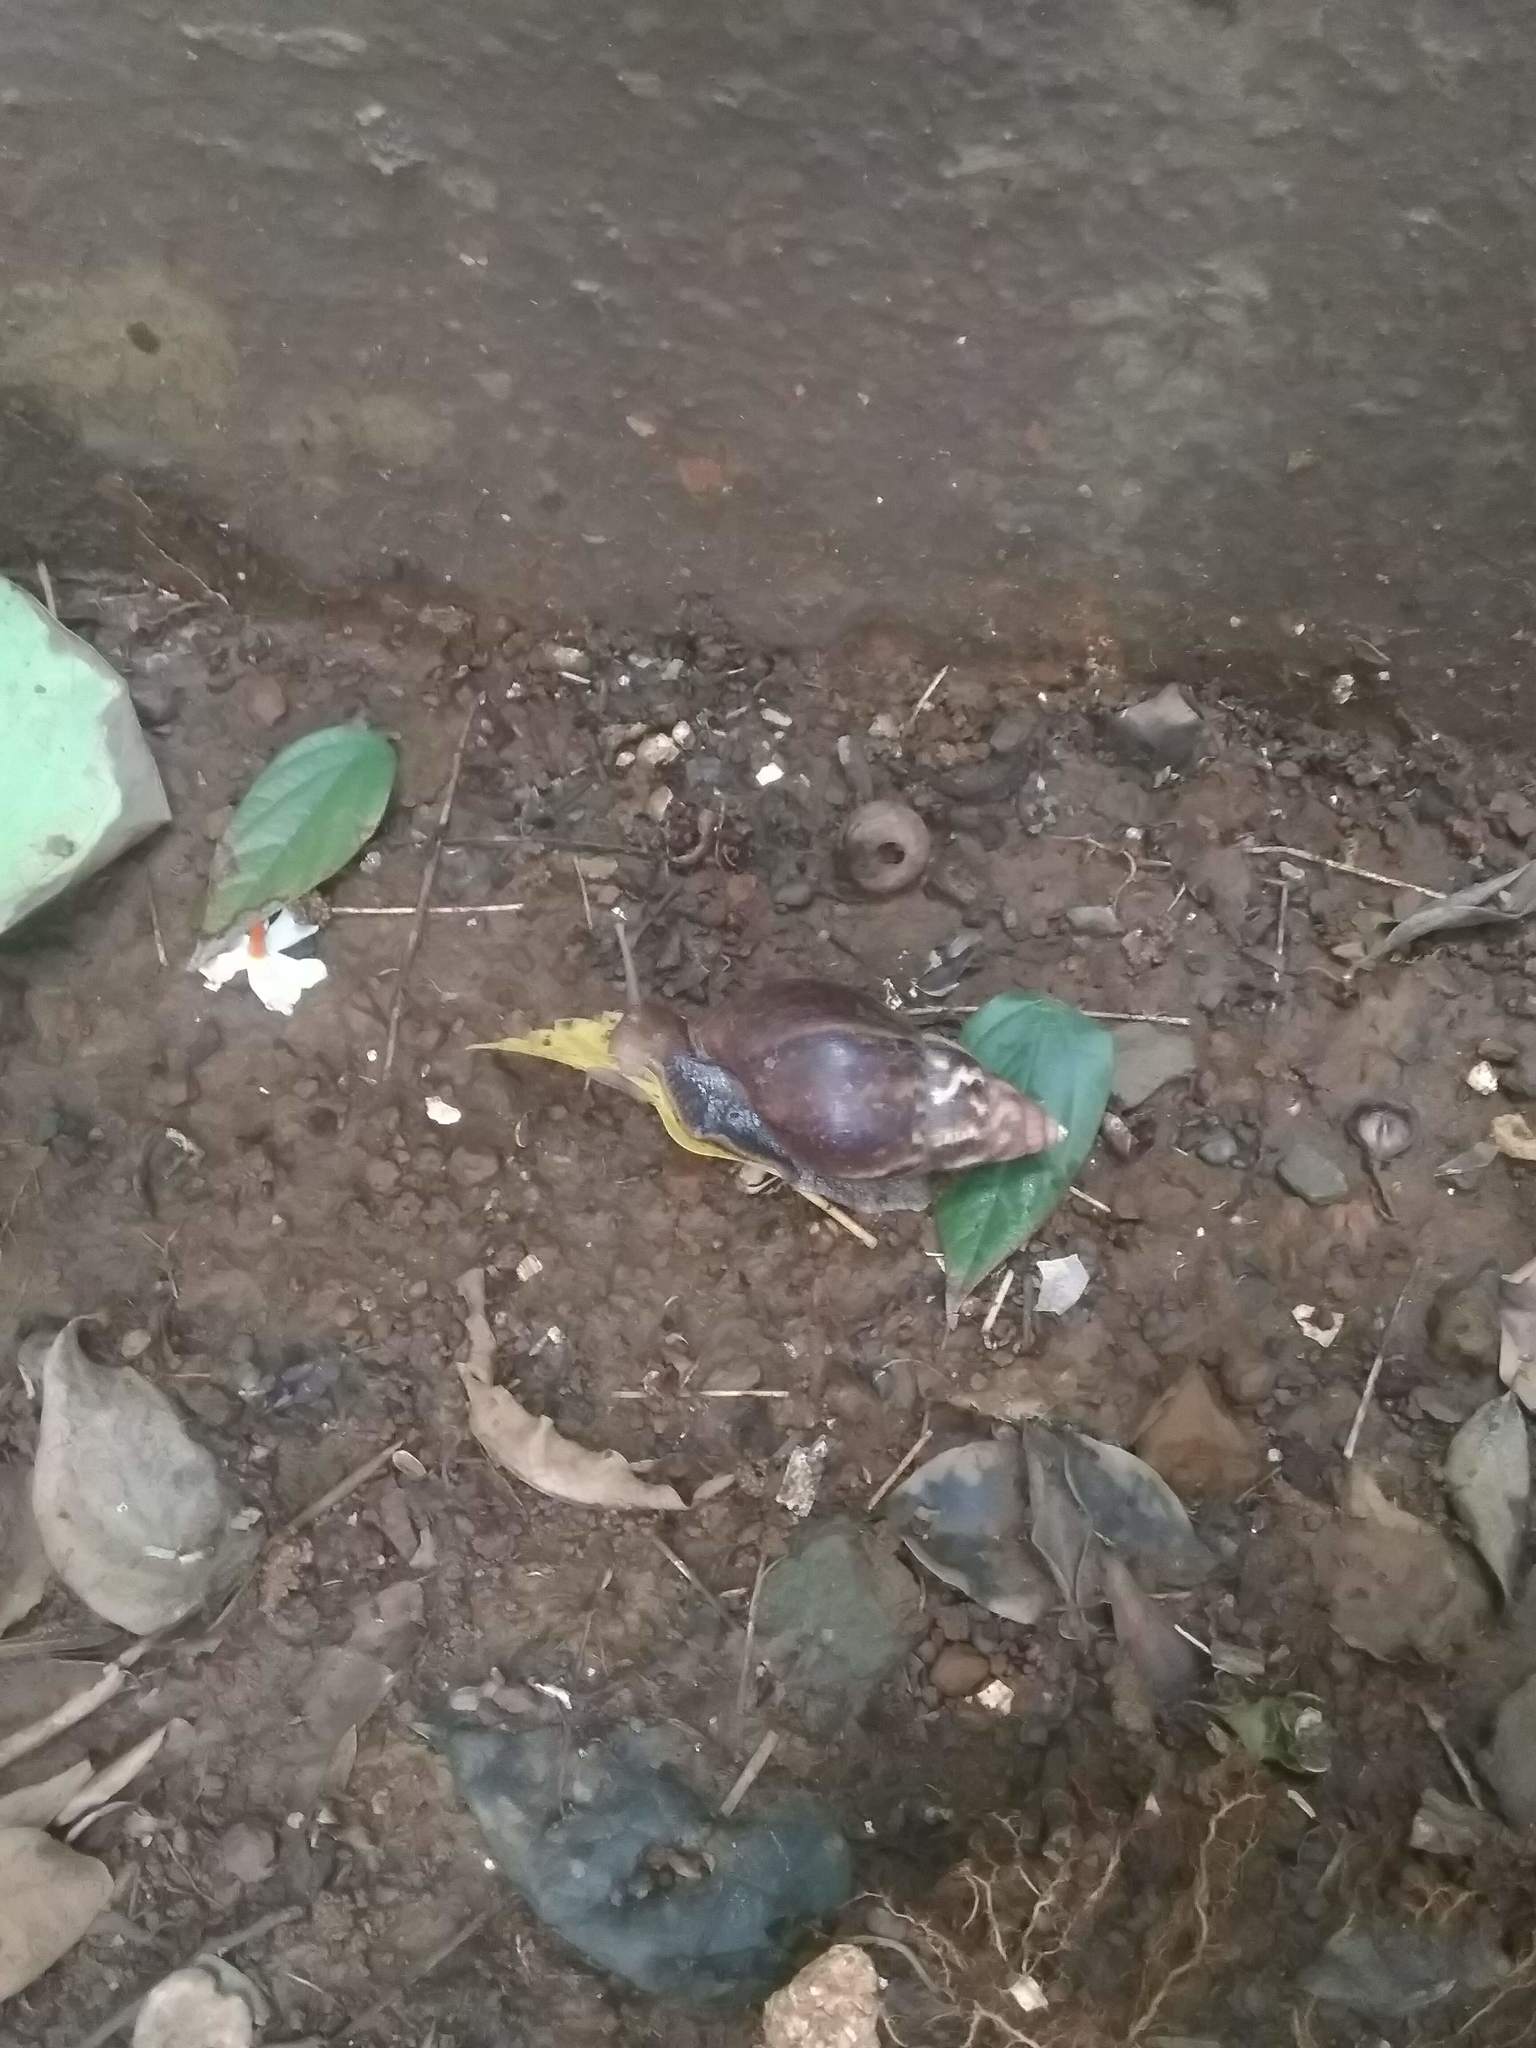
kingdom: Animalia
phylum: Mollusca
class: Gastropoda
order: Stylommatophora
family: Achatinidae
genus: Lissachatina
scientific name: Lissachatina fulica
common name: Giant african snail
